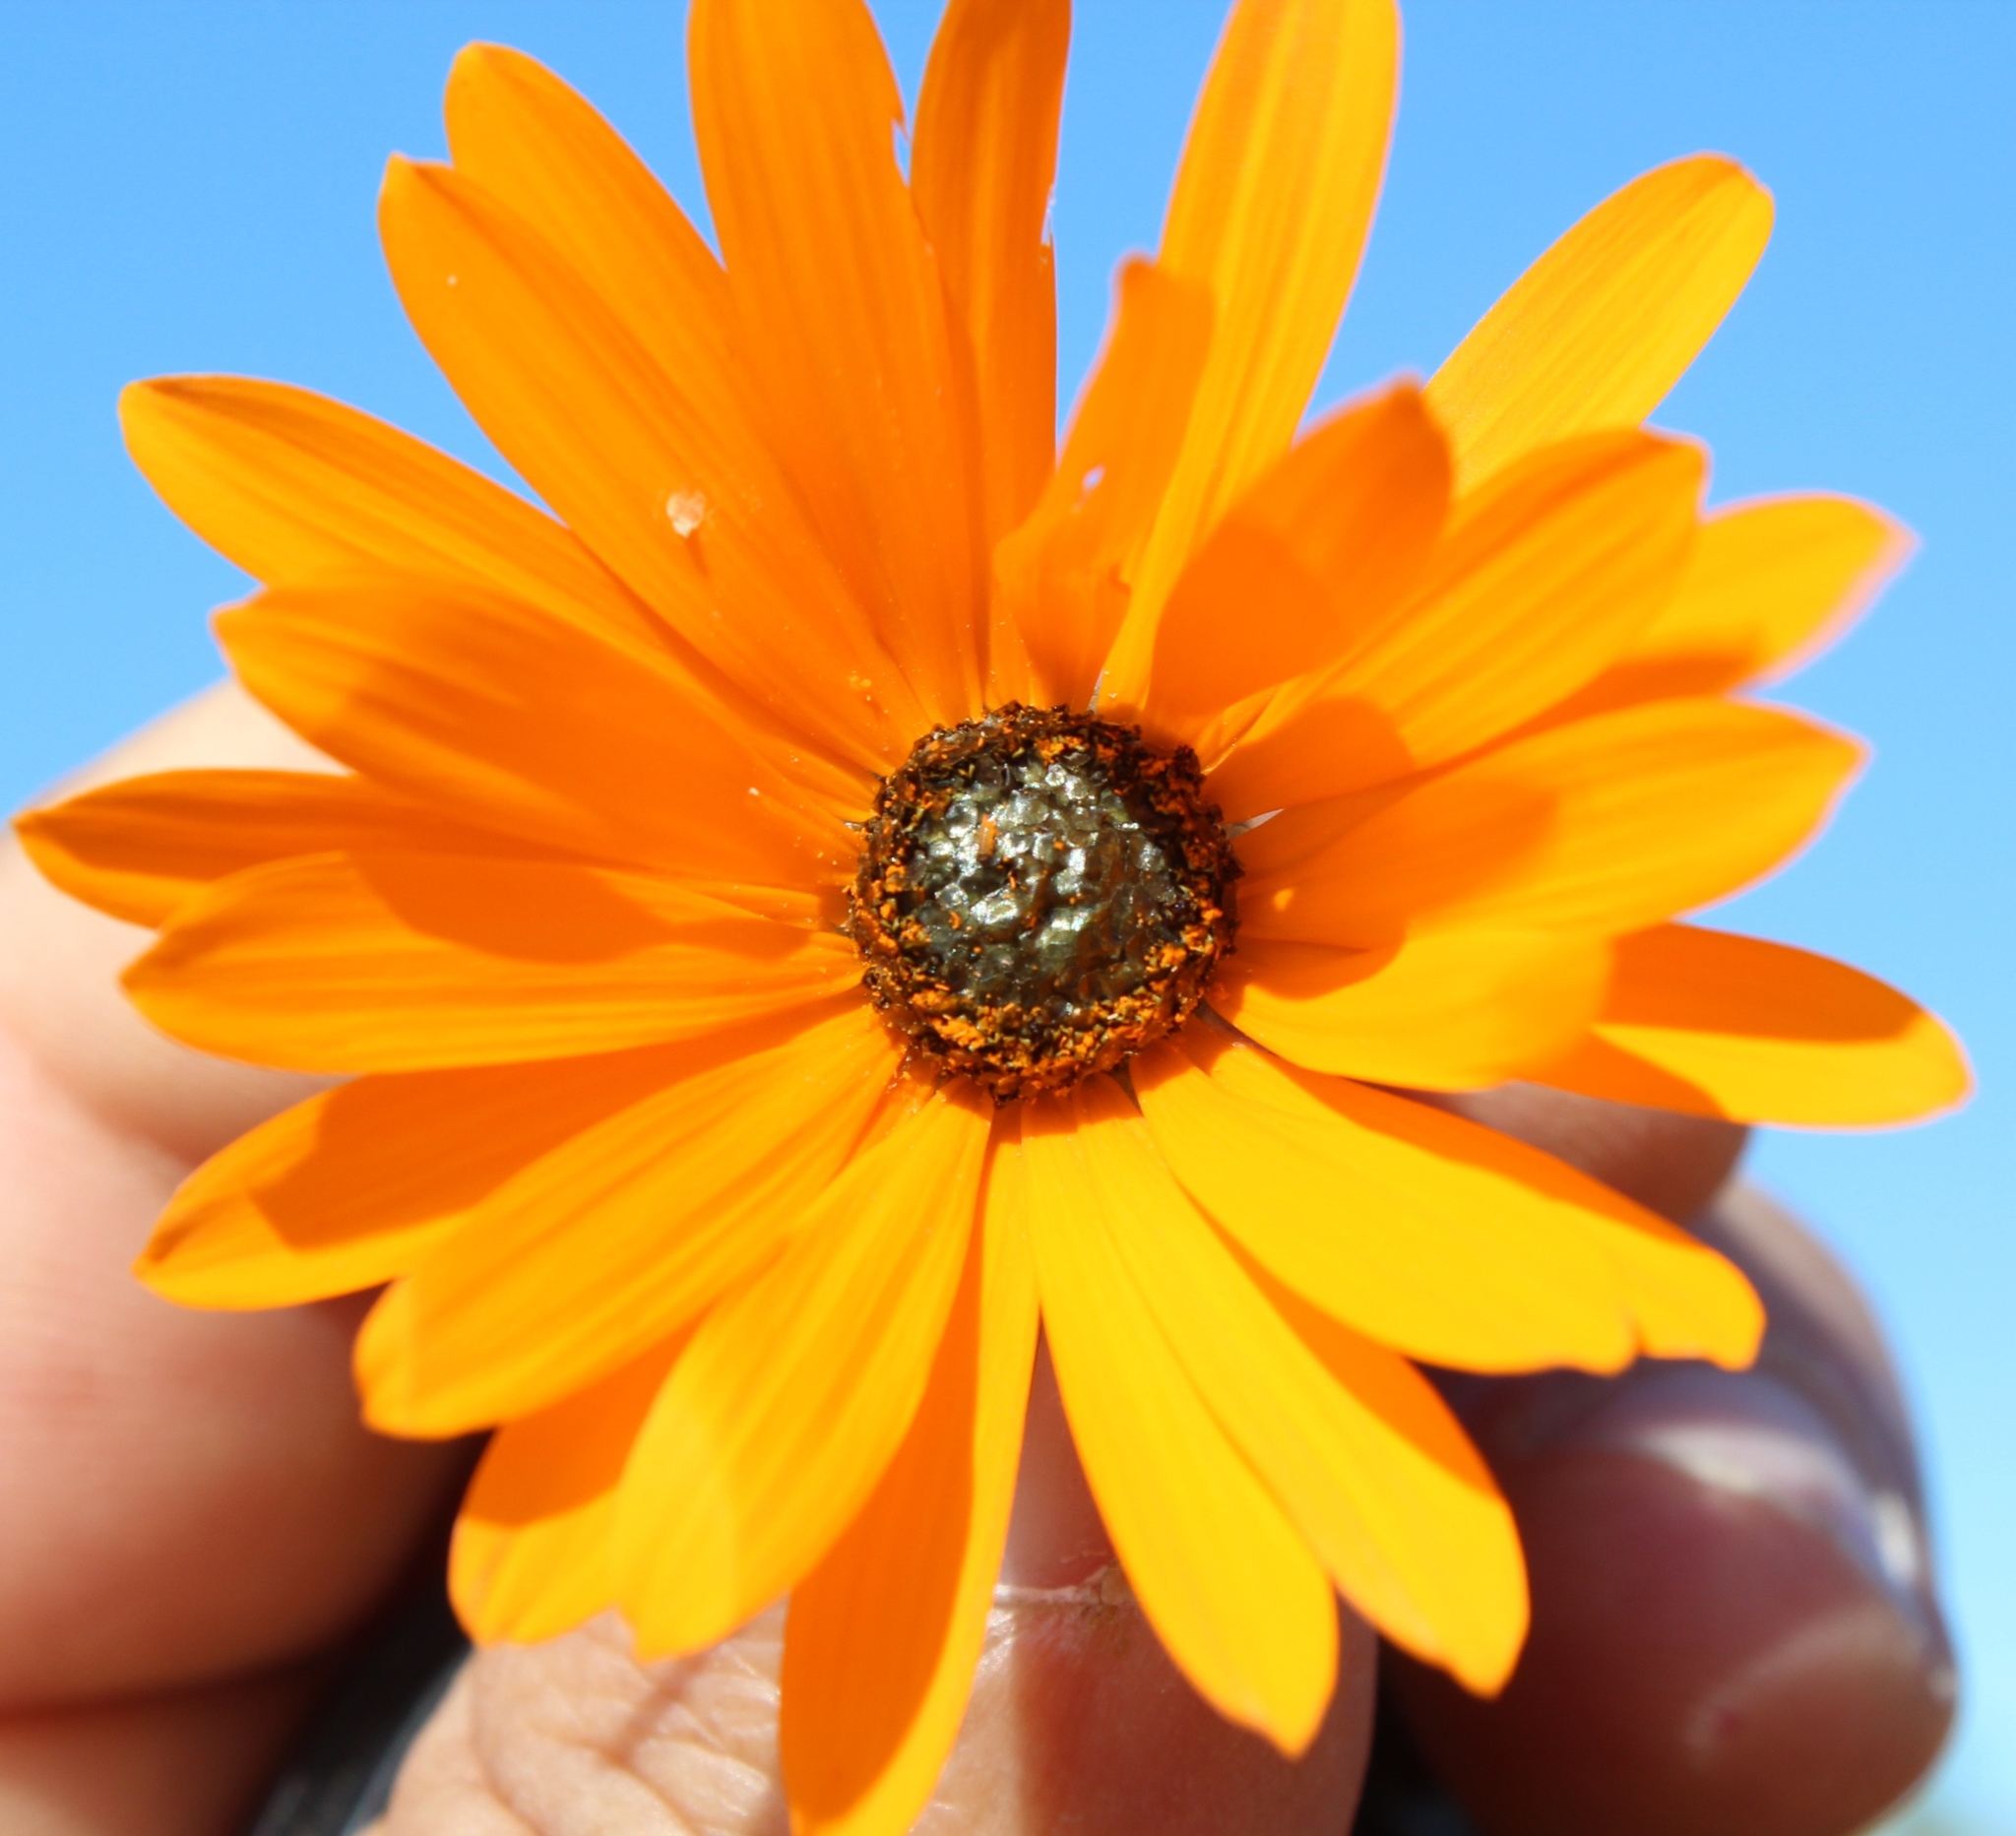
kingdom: Plantae
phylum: Tracheophyta
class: Magnoliopsida
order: Asterales
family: Asteraceae
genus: Ursinia
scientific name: Ursinia cakilefolia
